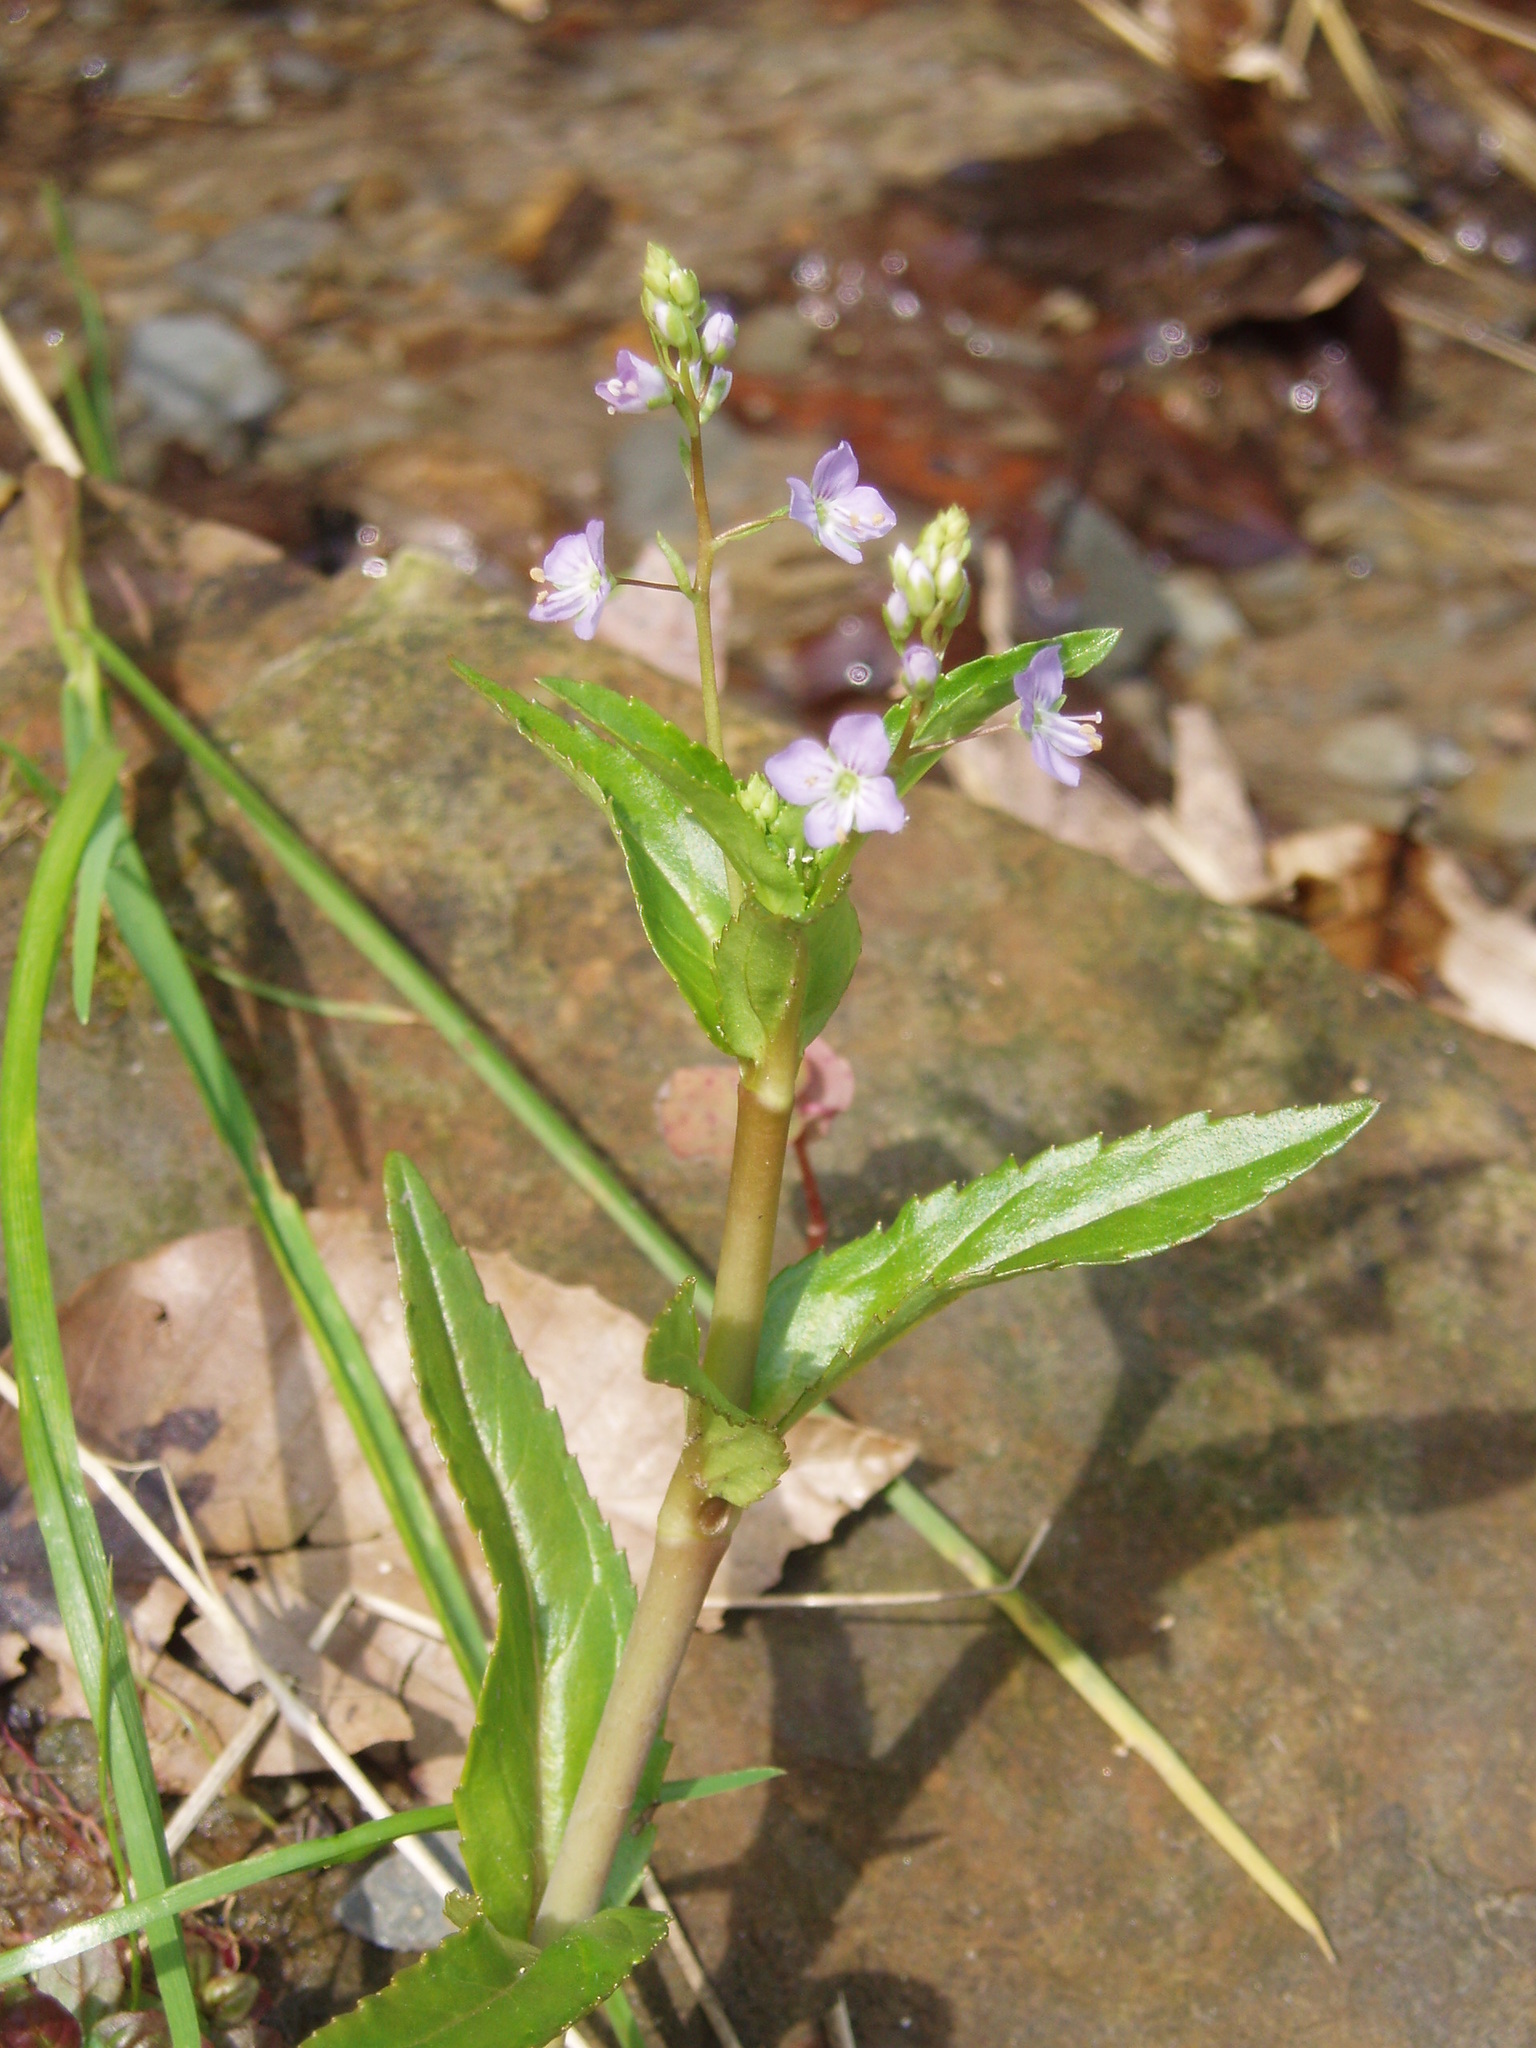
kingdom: Plantae
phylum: Tracheophyta
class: Magnoliopsida
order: Lamiales
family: Plantaginaceae
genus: Veronica
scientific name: Veronica americana
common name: American brooklime
